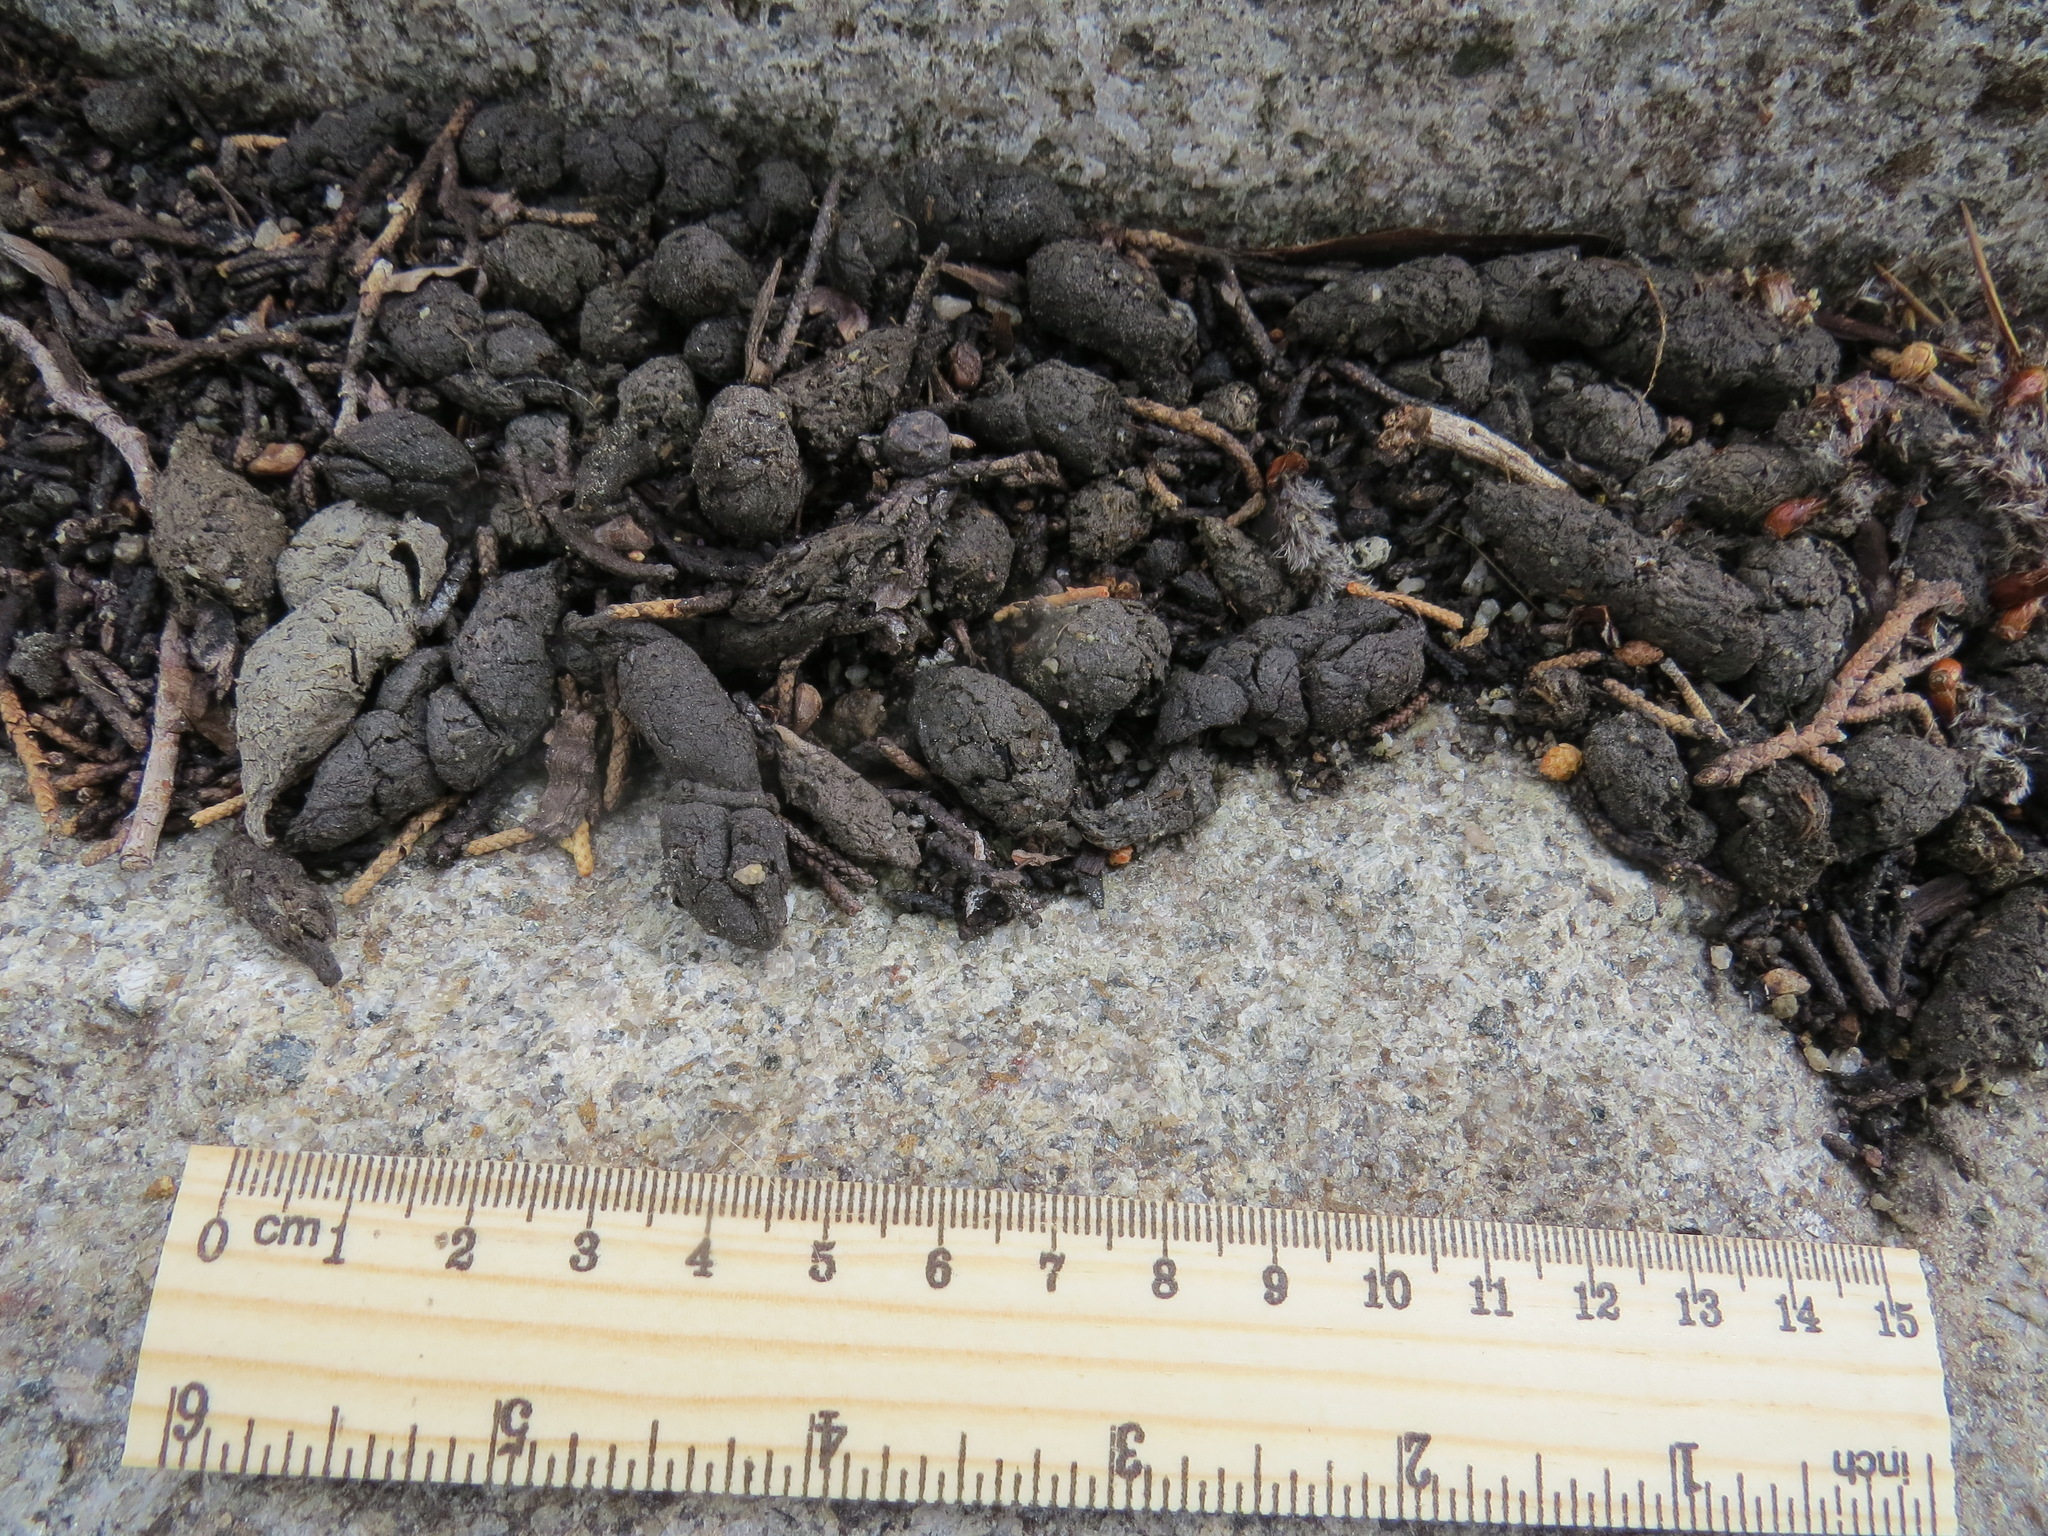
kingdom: Animalia
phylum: Chordata
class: Mammalia
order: Rodentia
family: Sciuridae
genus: Marmota
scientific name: Marmota flaviventris
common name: Yellow-bellied marmot
